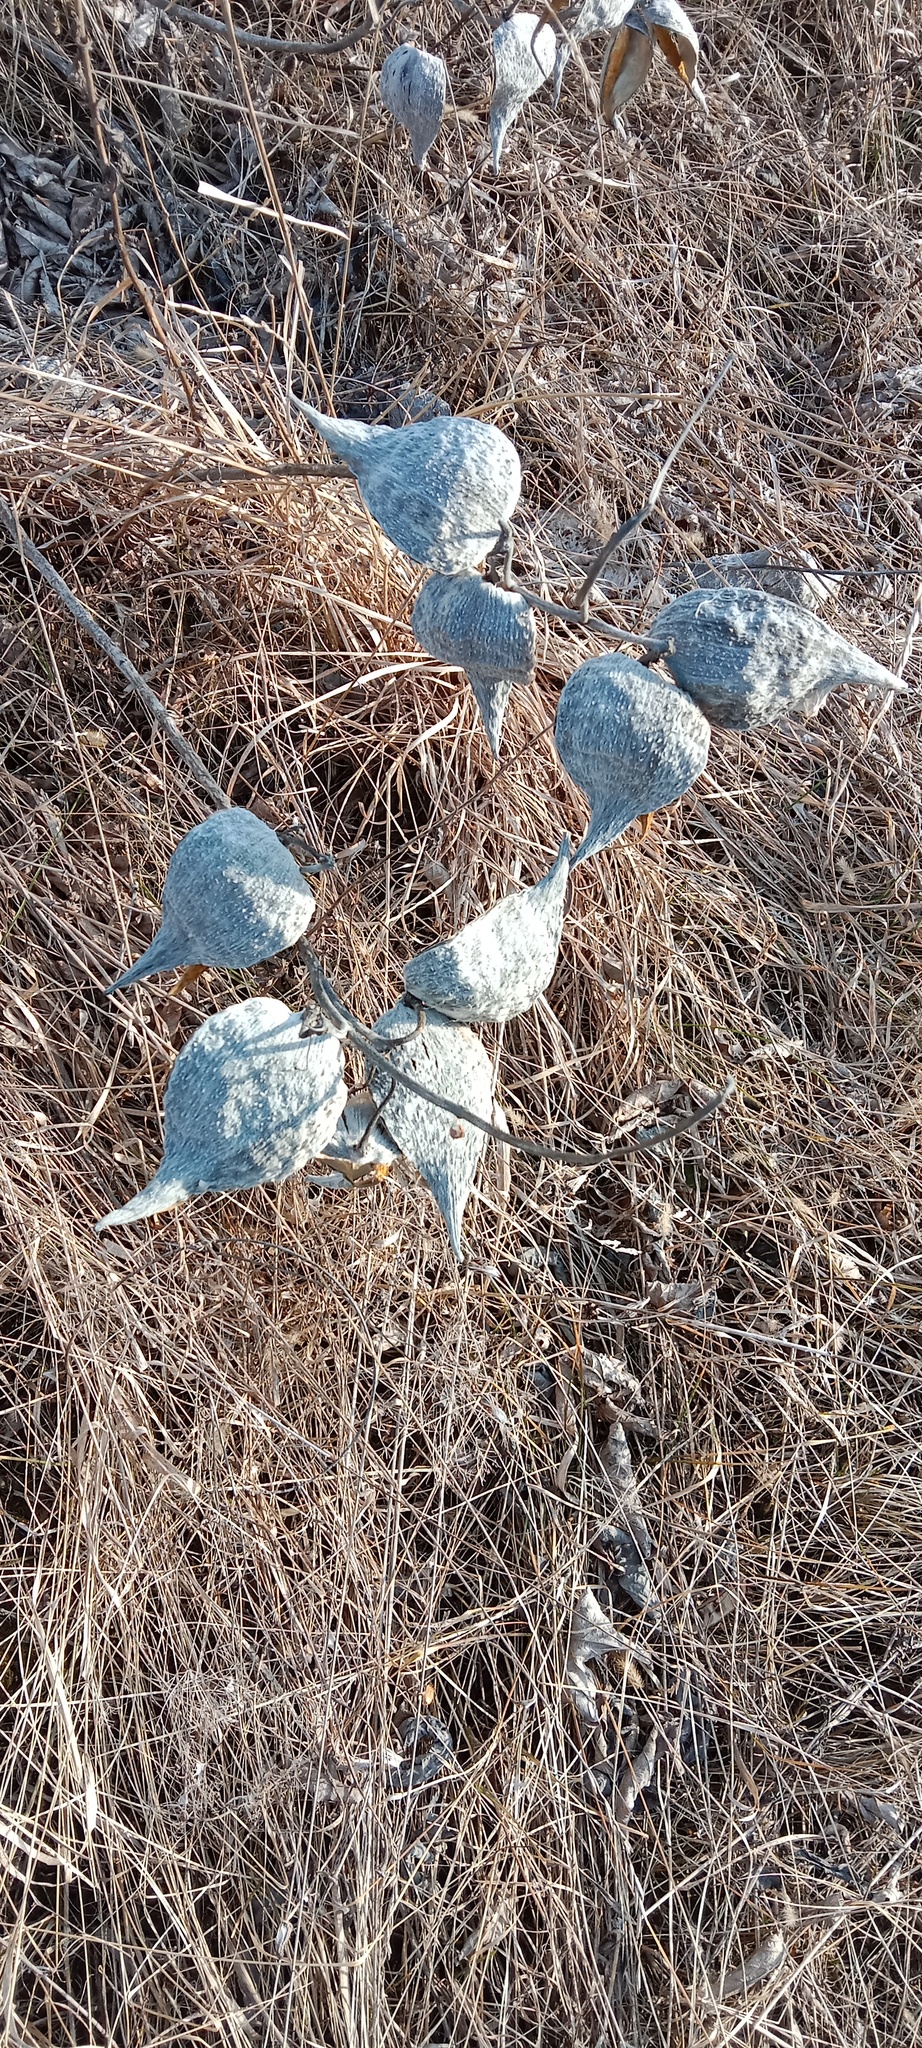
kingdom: Plantae
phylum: Tracheophyta
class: Magnoliopsida
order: Gentianales
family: Apocynaceae
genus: Asclepias
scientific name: Asclepias syriaca
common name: Common milkweed
